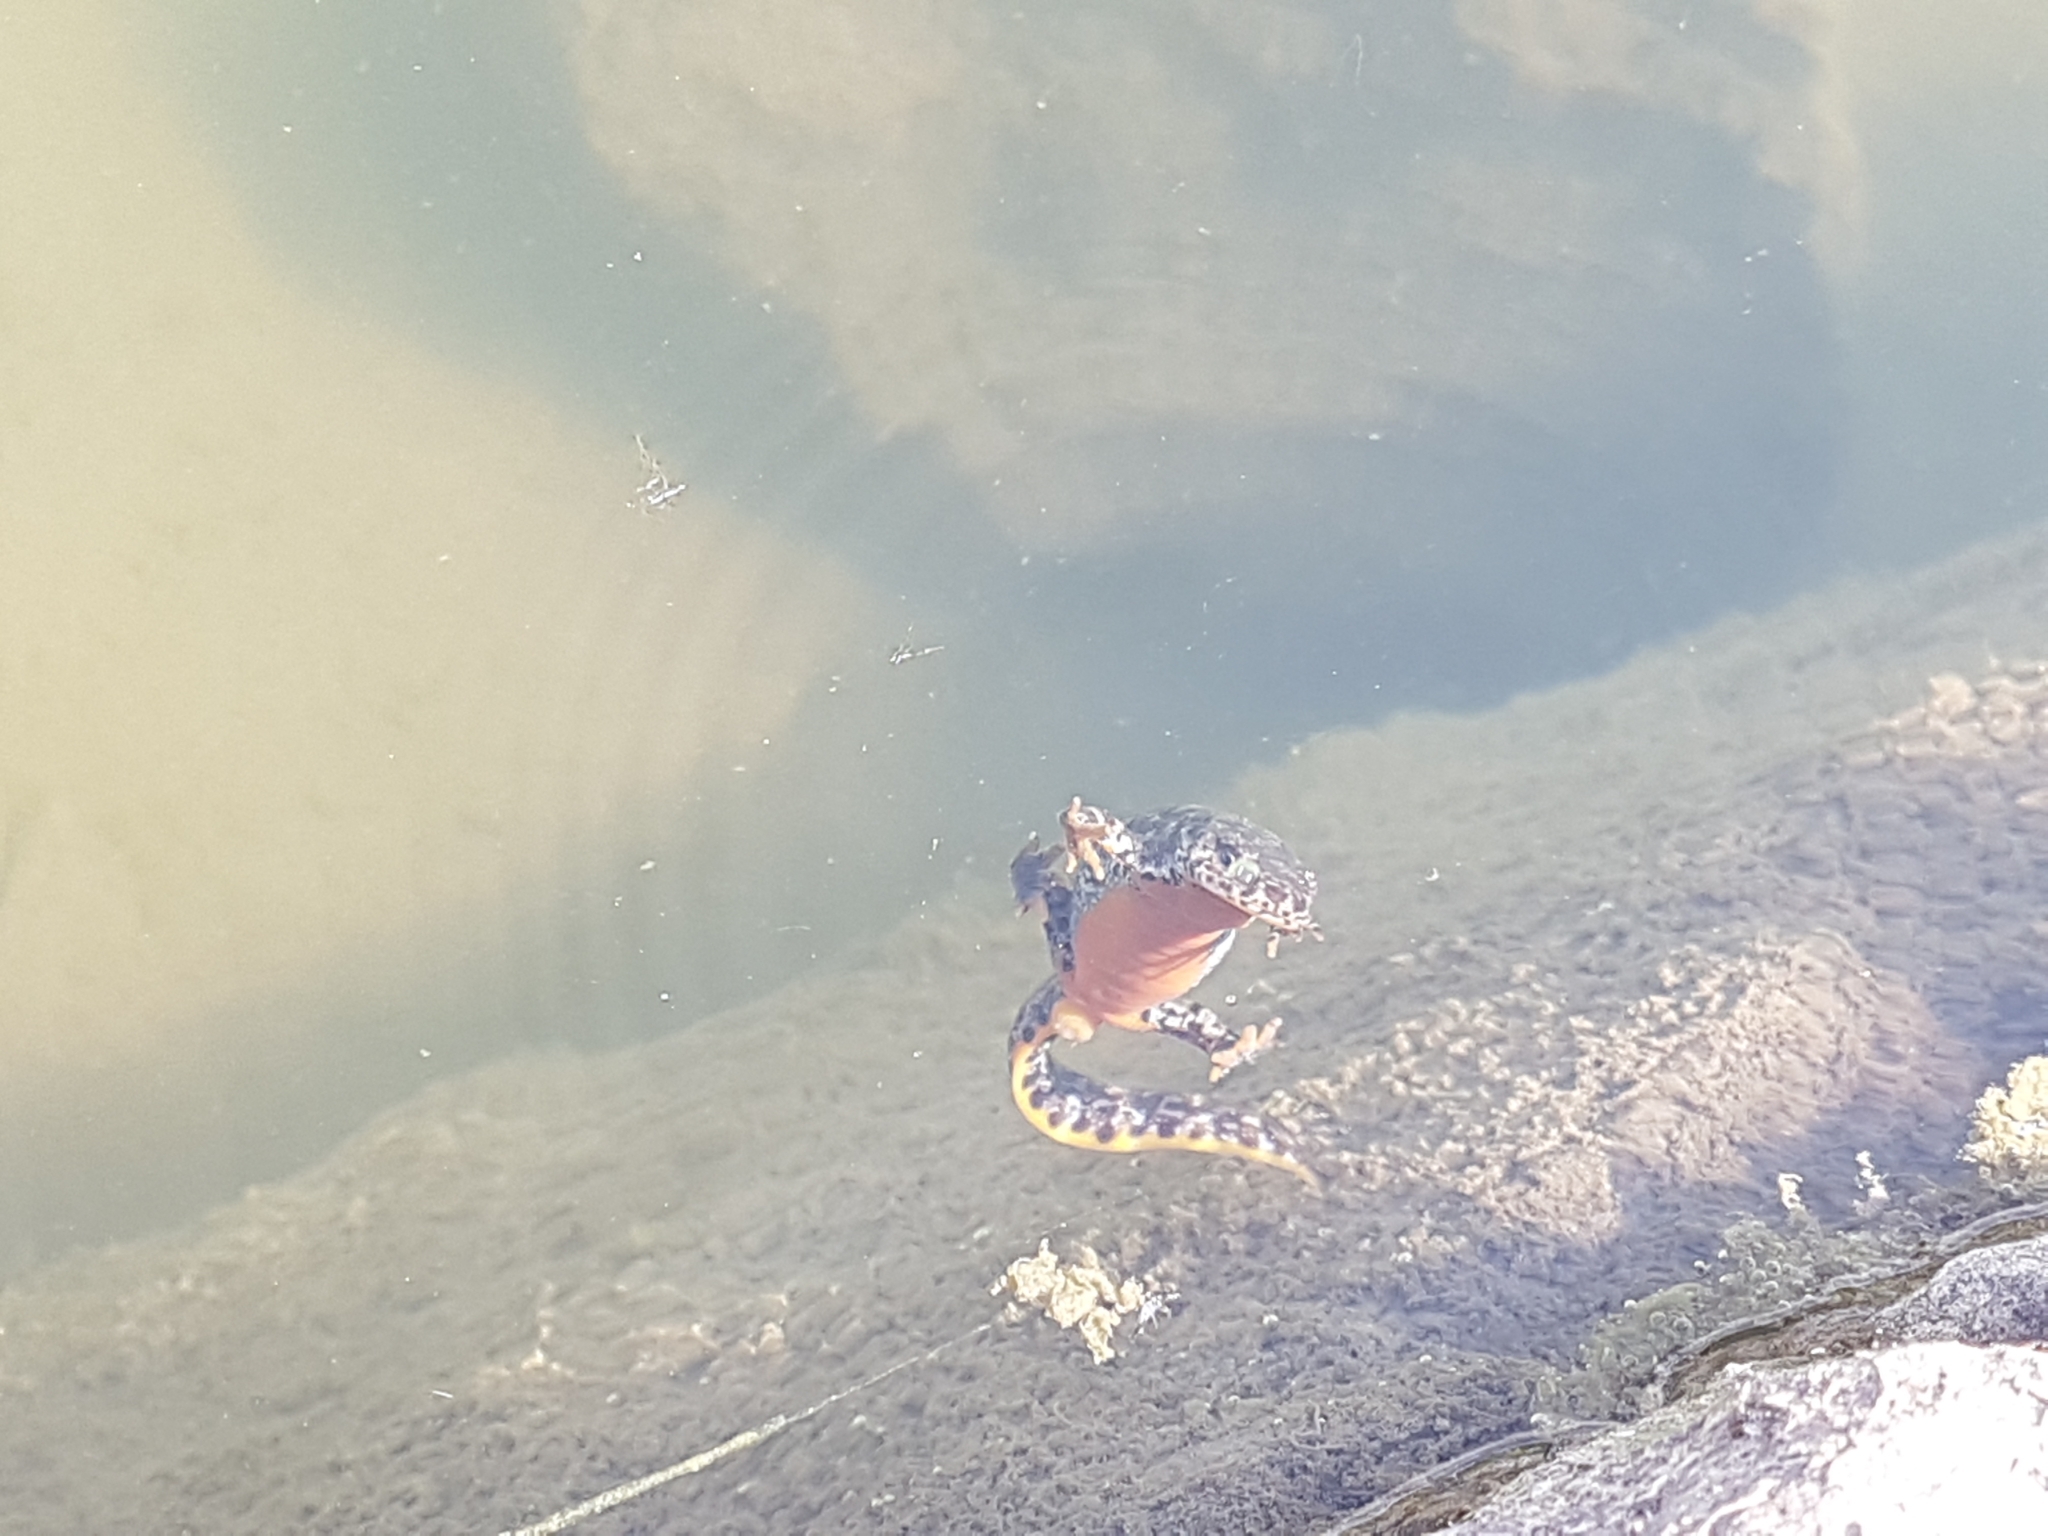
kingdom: Animalia
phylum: Chordata
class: Amphibia
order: Caudata
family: Salamandridae
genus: Ichthyosaura
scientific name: Ichthyosaura alpestris
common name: Alpine newt
